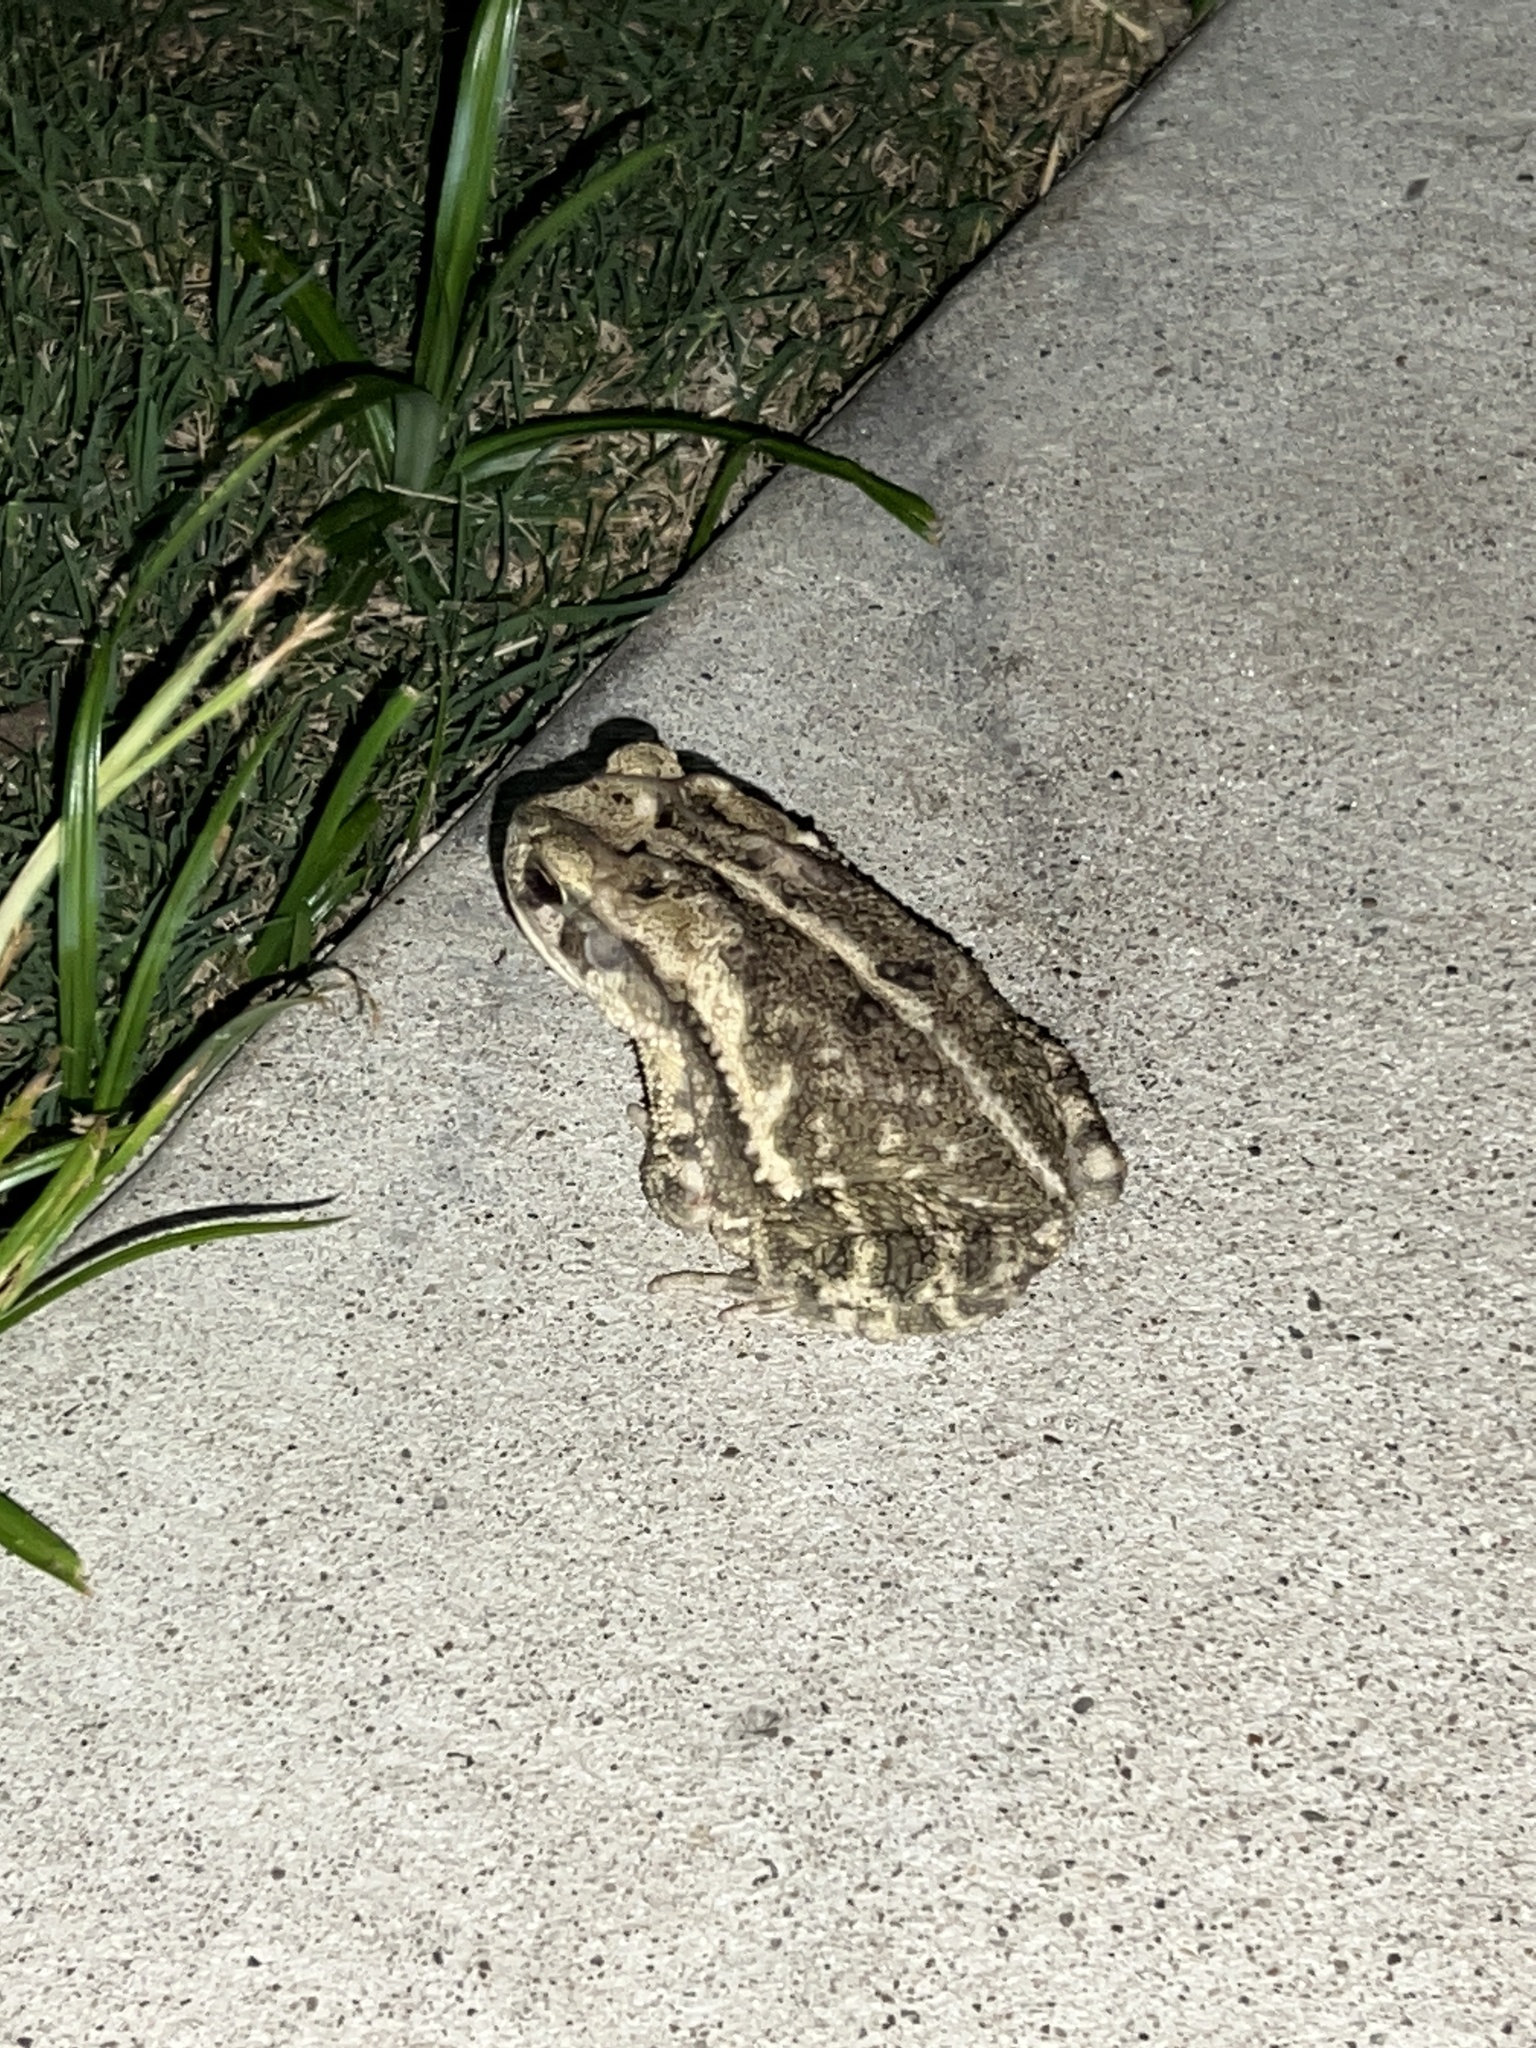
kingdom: Animalia
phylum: Chordata
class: Amphibia
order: Anura
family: Bufonidae
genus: Incilius
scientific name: Incilius nebulifer
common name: Gulf coast toad
